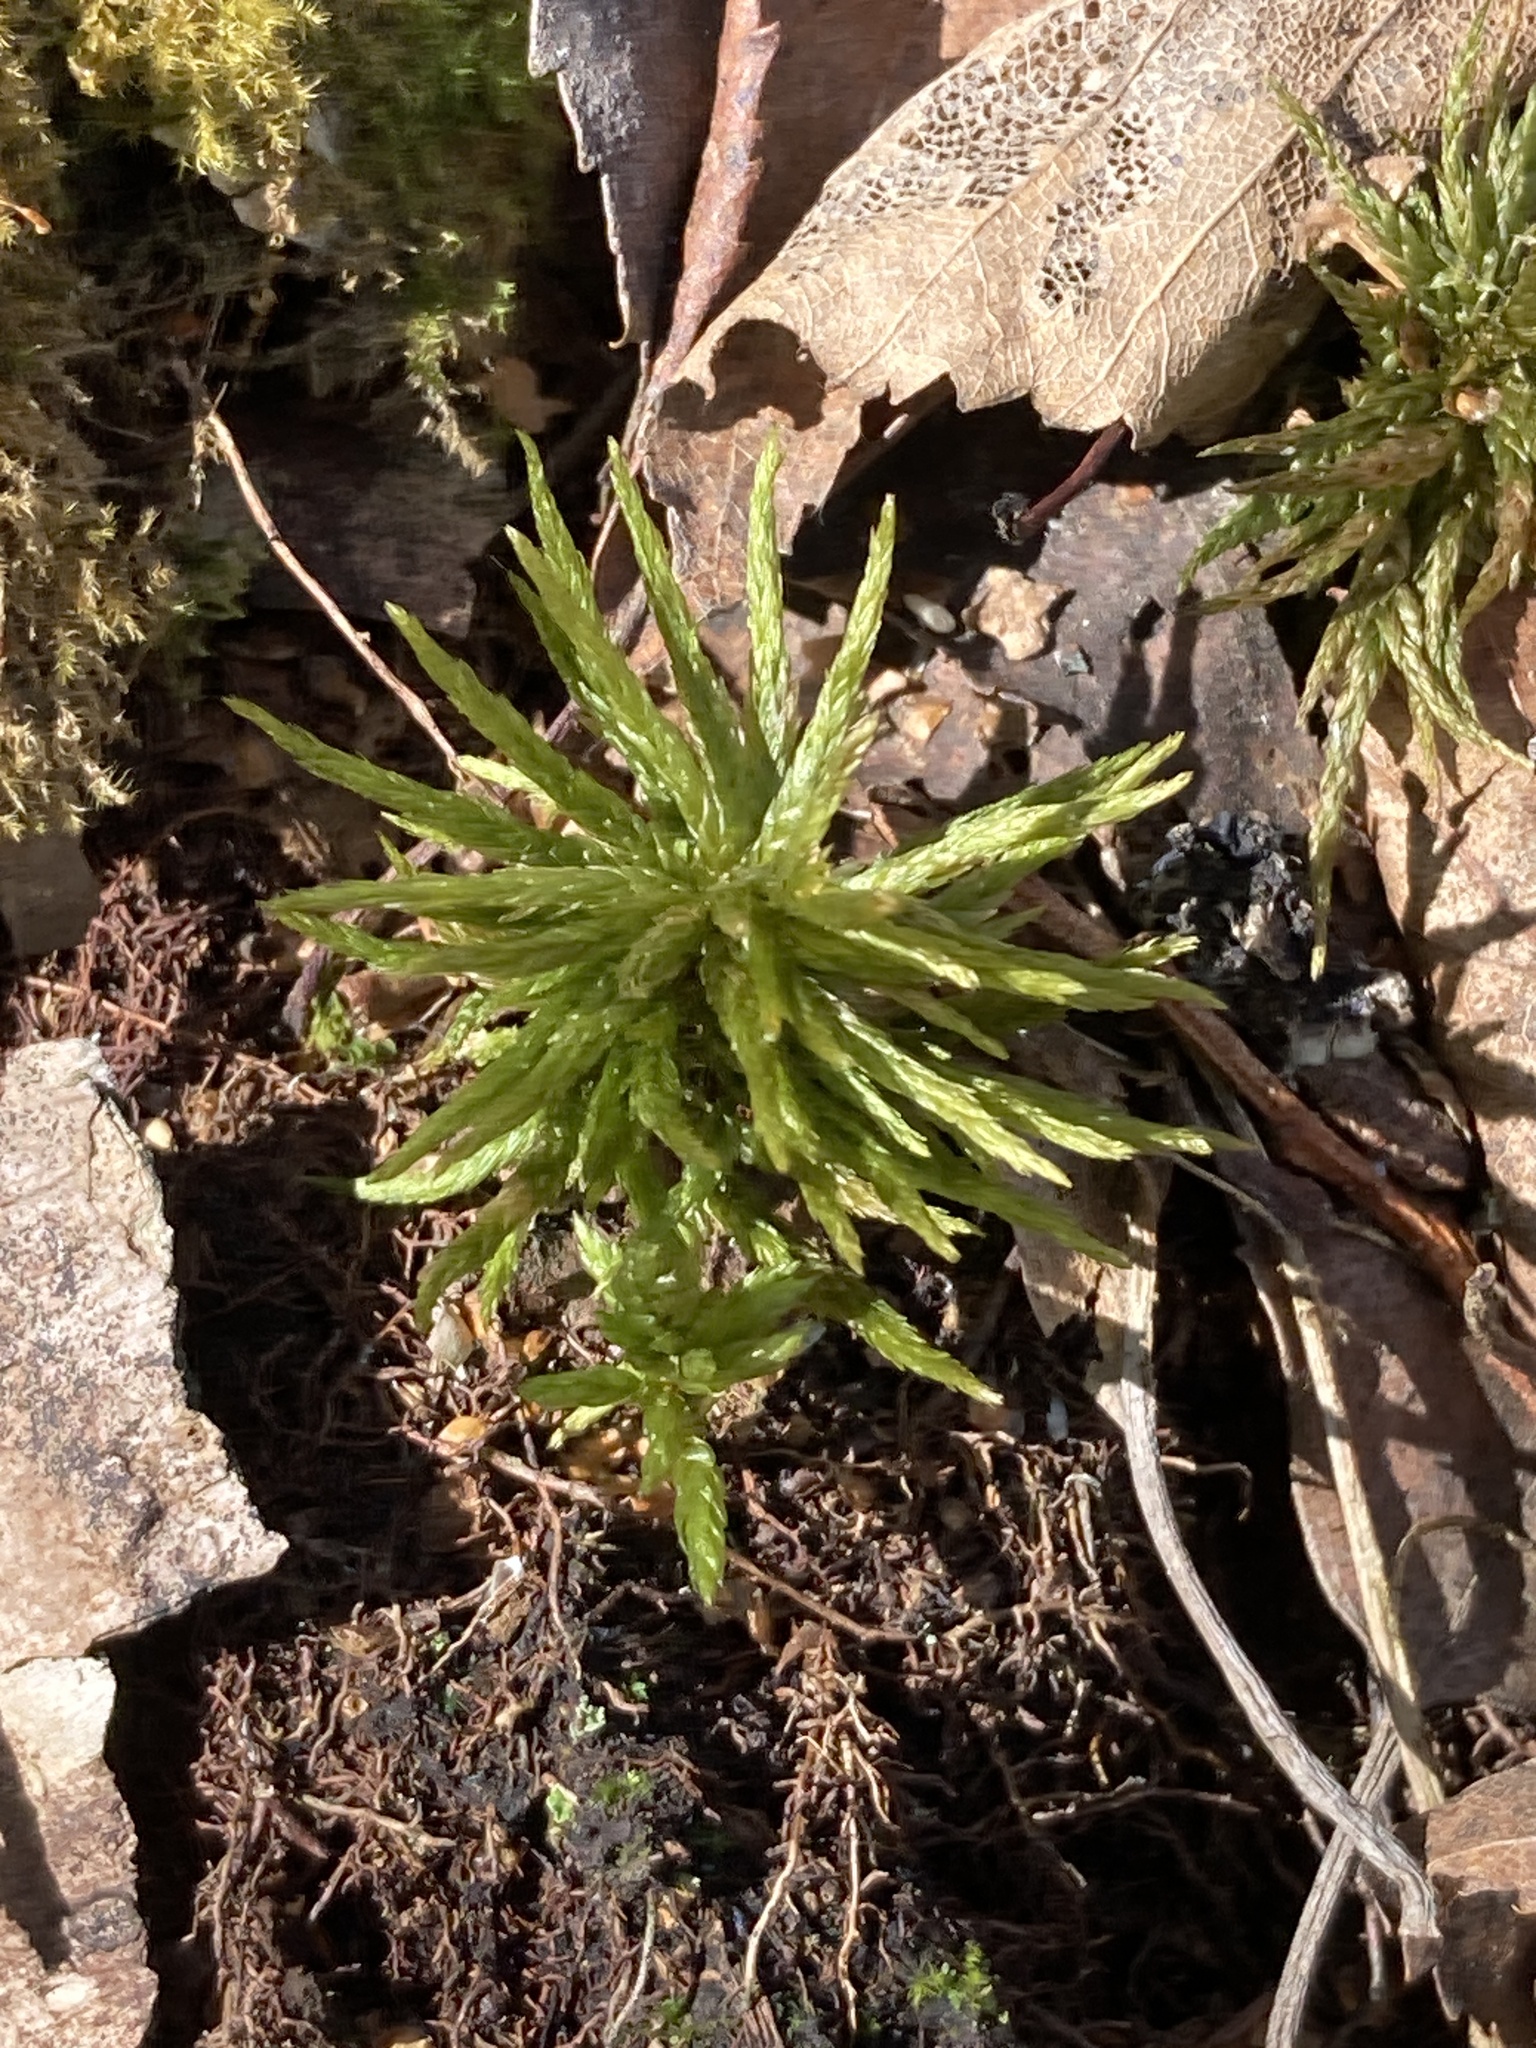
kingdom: Plantae
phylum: Bryophyta
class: Bryopsida
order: Hypnales
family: Climaciaceae
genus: Climacium
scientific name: Climacium dendroides
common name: Northern tree moss
